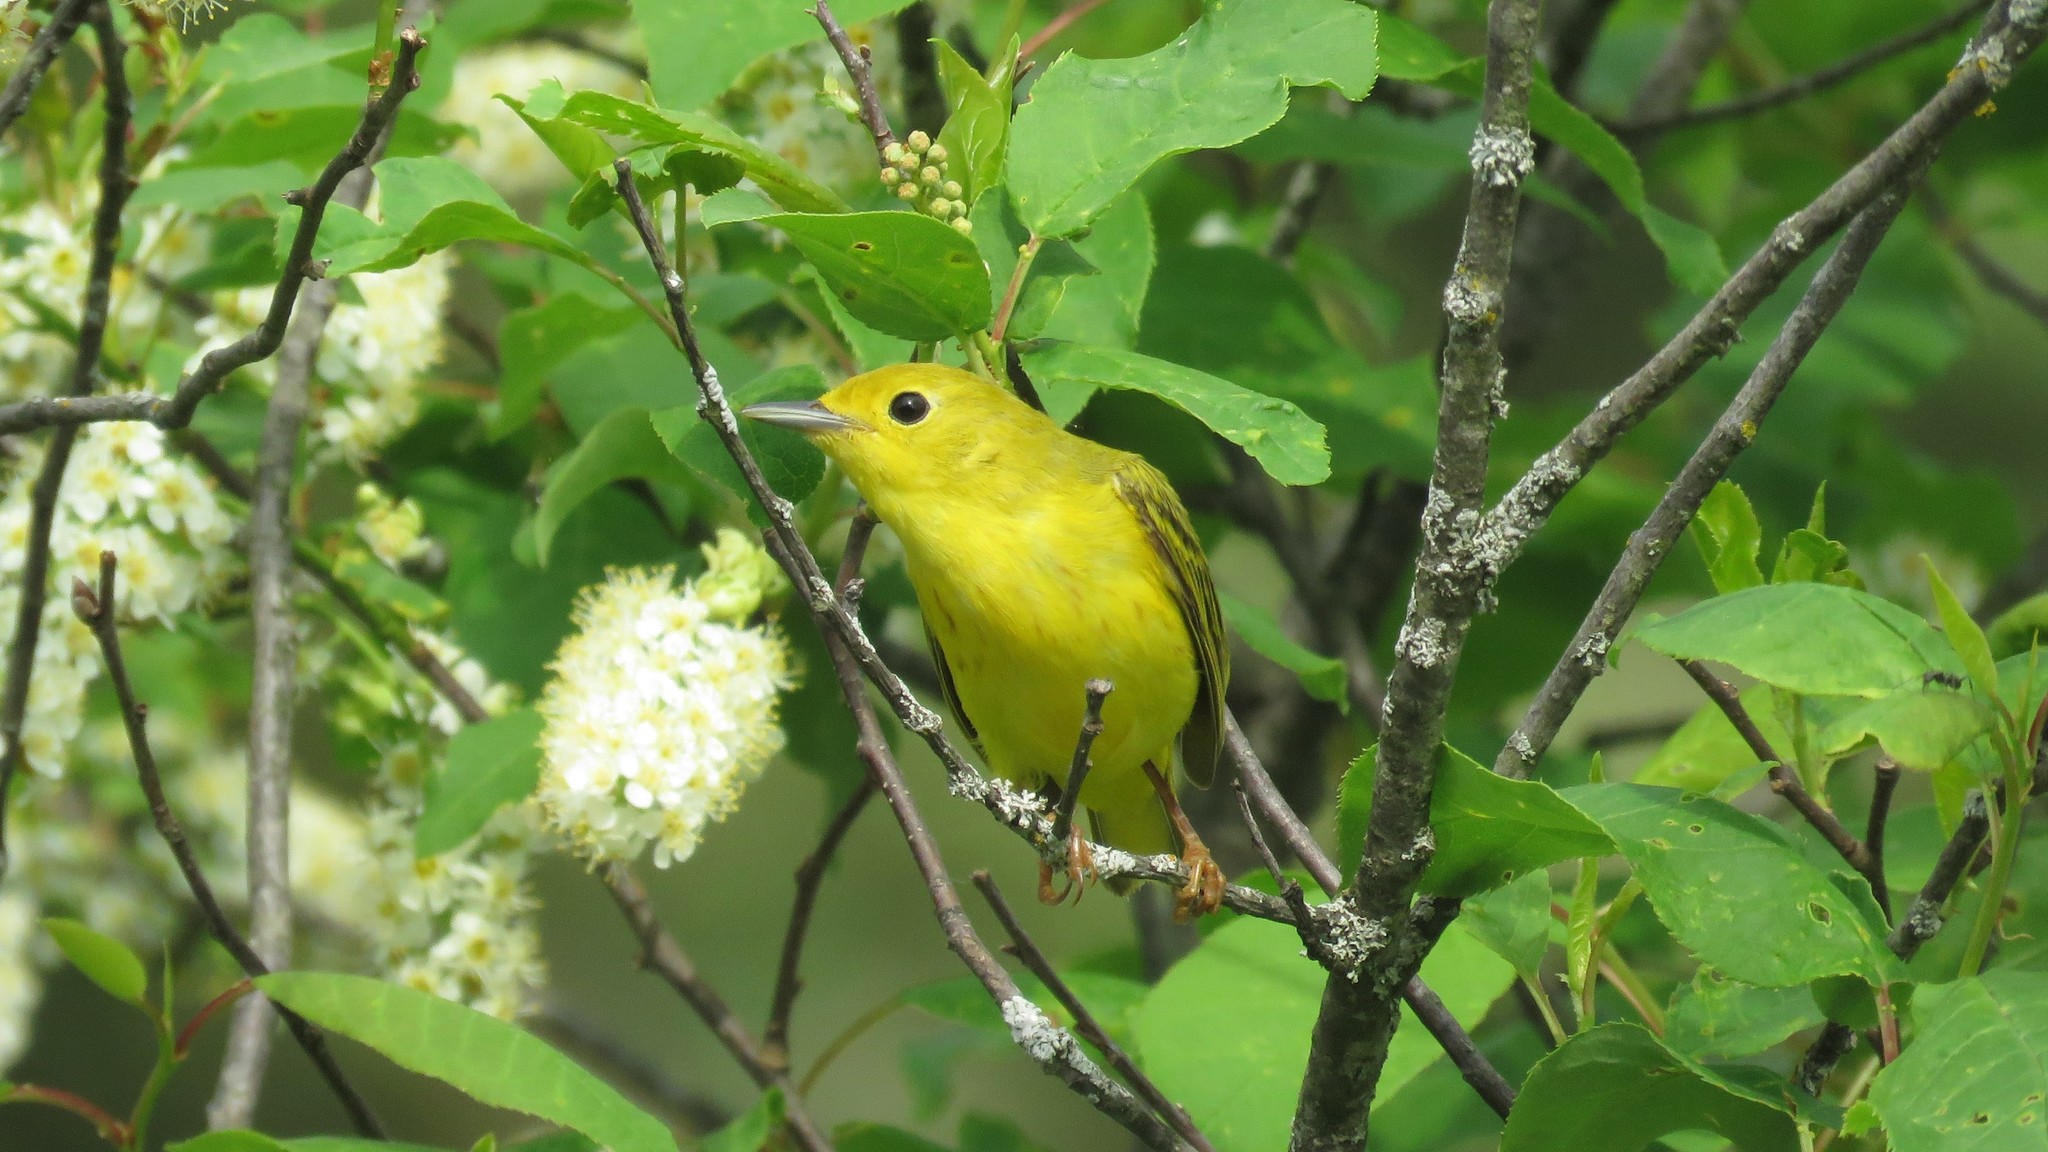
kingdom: Animalia
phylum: Chordata
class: Aves
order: Passeriformes
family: Parulidae
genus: Setophaga
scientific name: Setophaga petechia
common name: Yellow warbler
